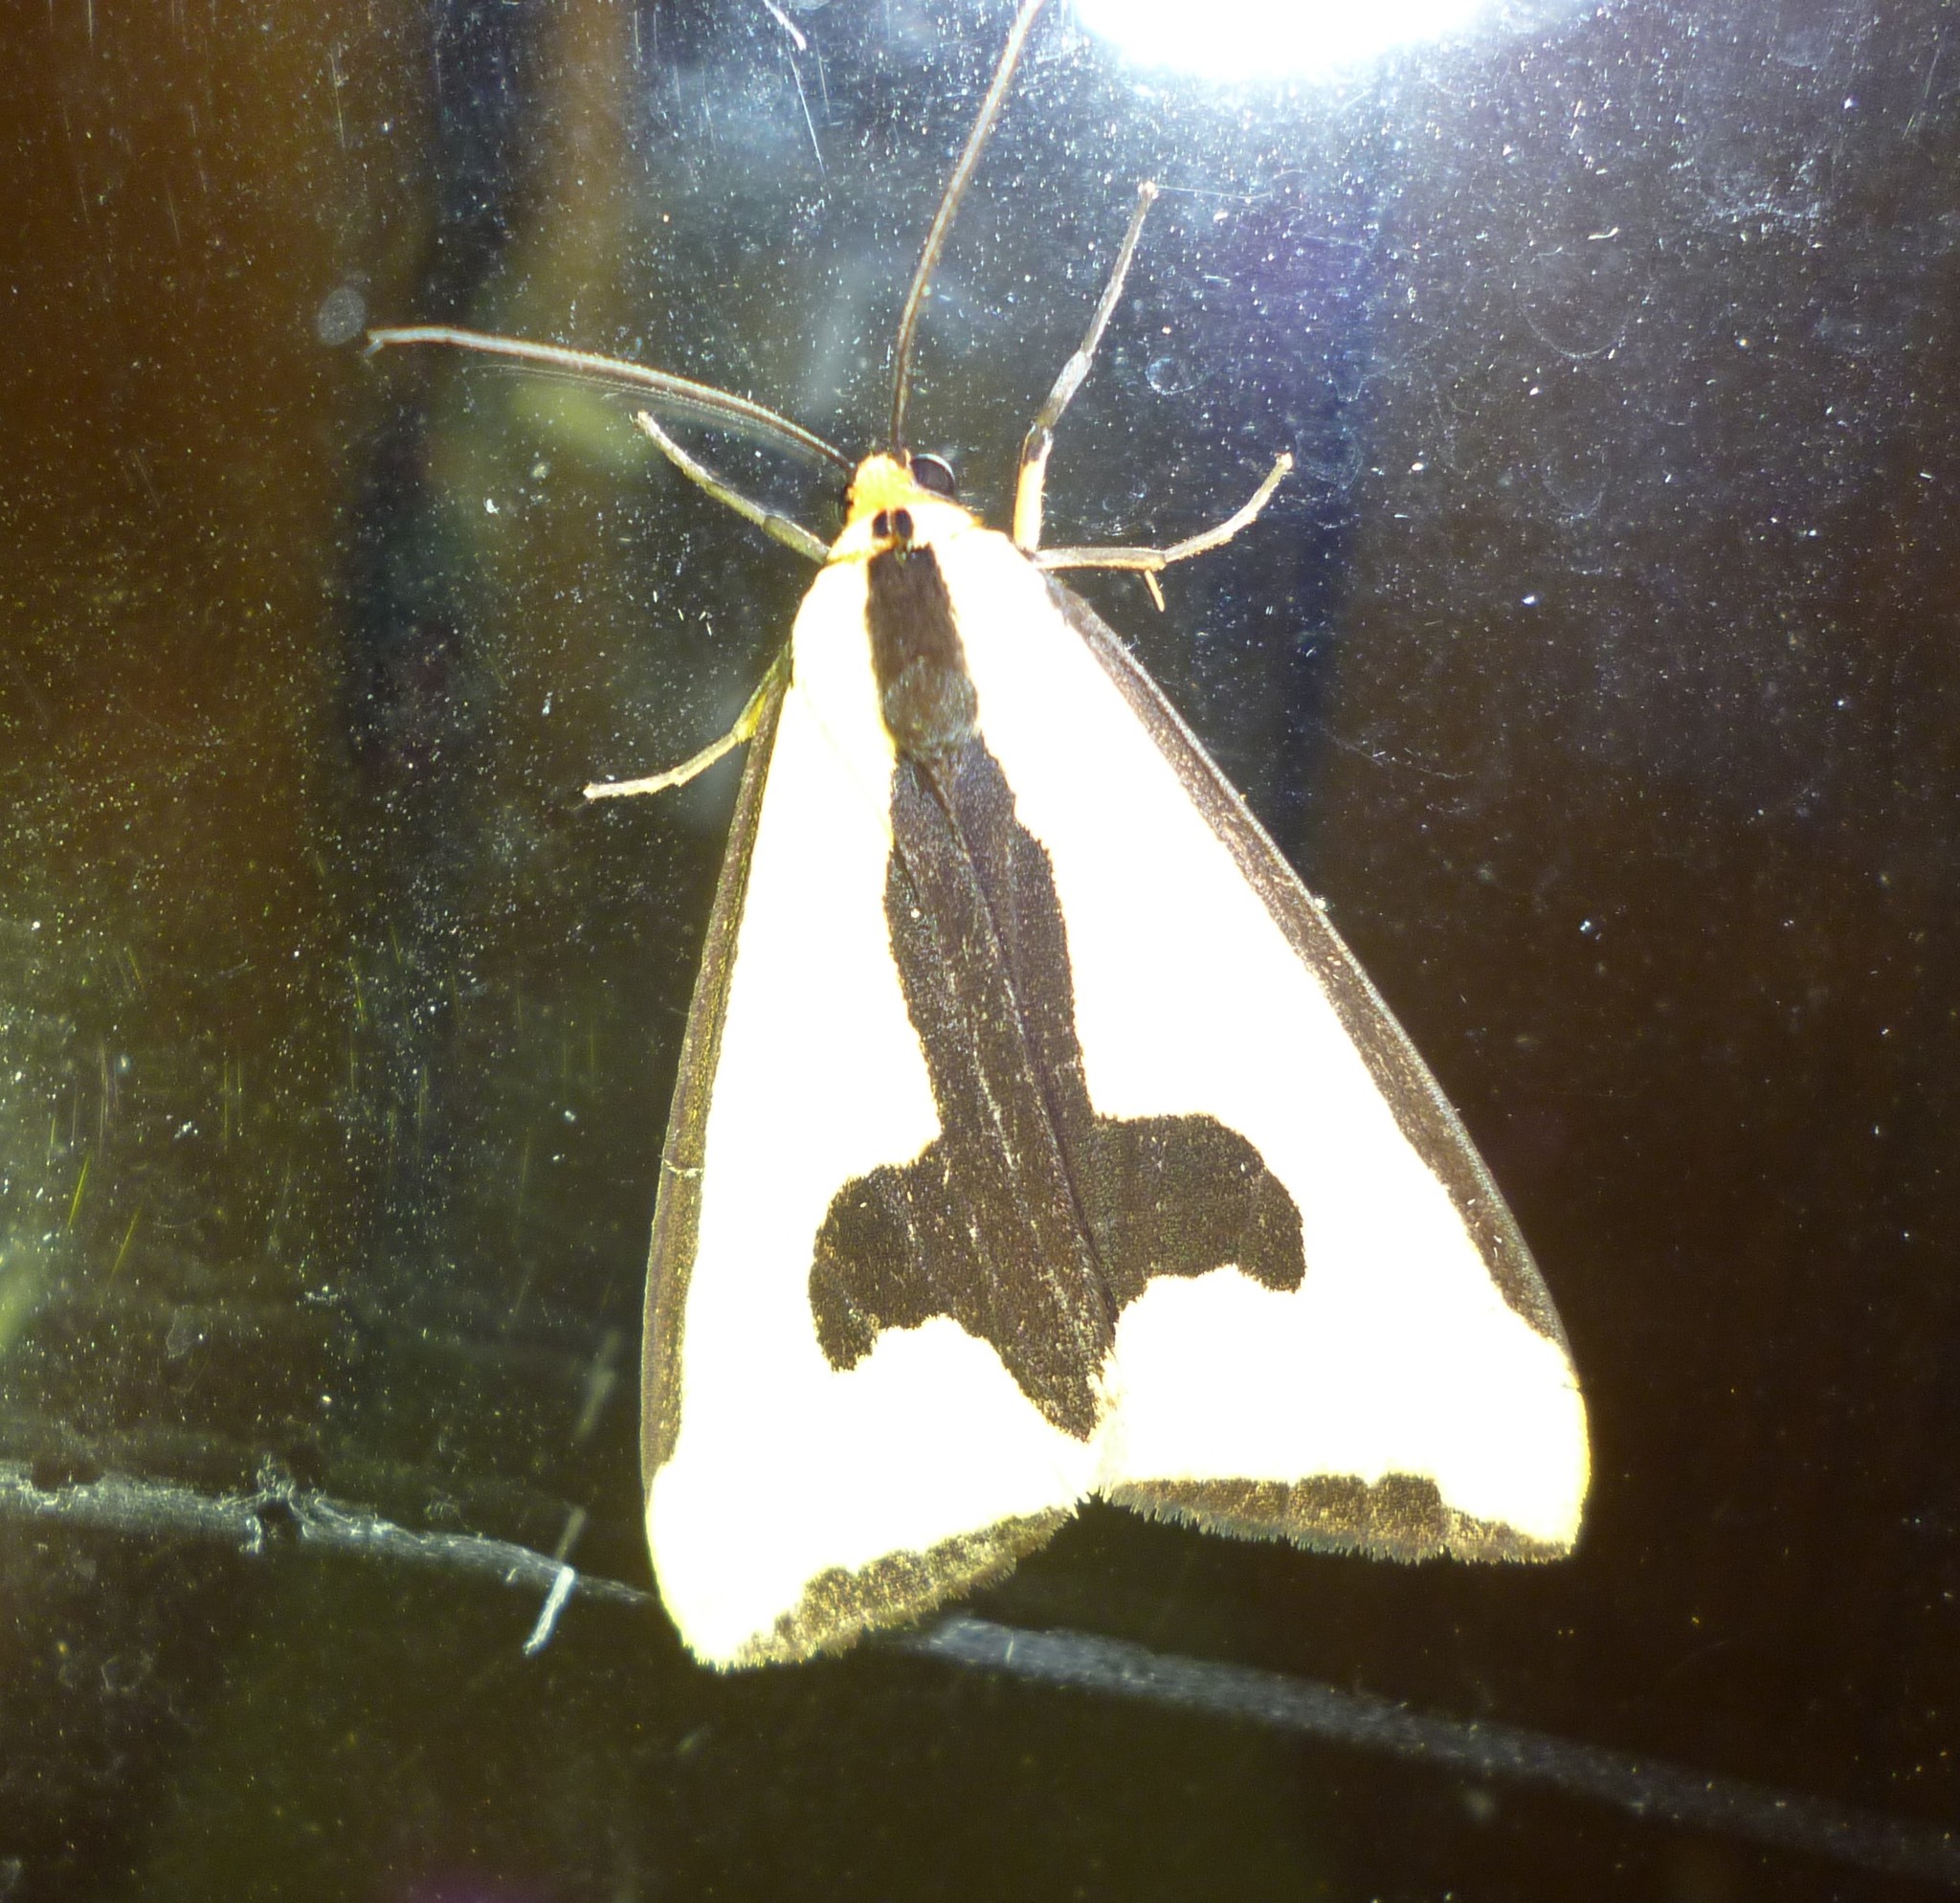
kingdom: Animalia
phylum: Arthropoda
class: Insecta
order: Lepidoptera
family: Erebidae
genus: Haploa
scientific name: Haploa clymene
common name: Clymene moth
